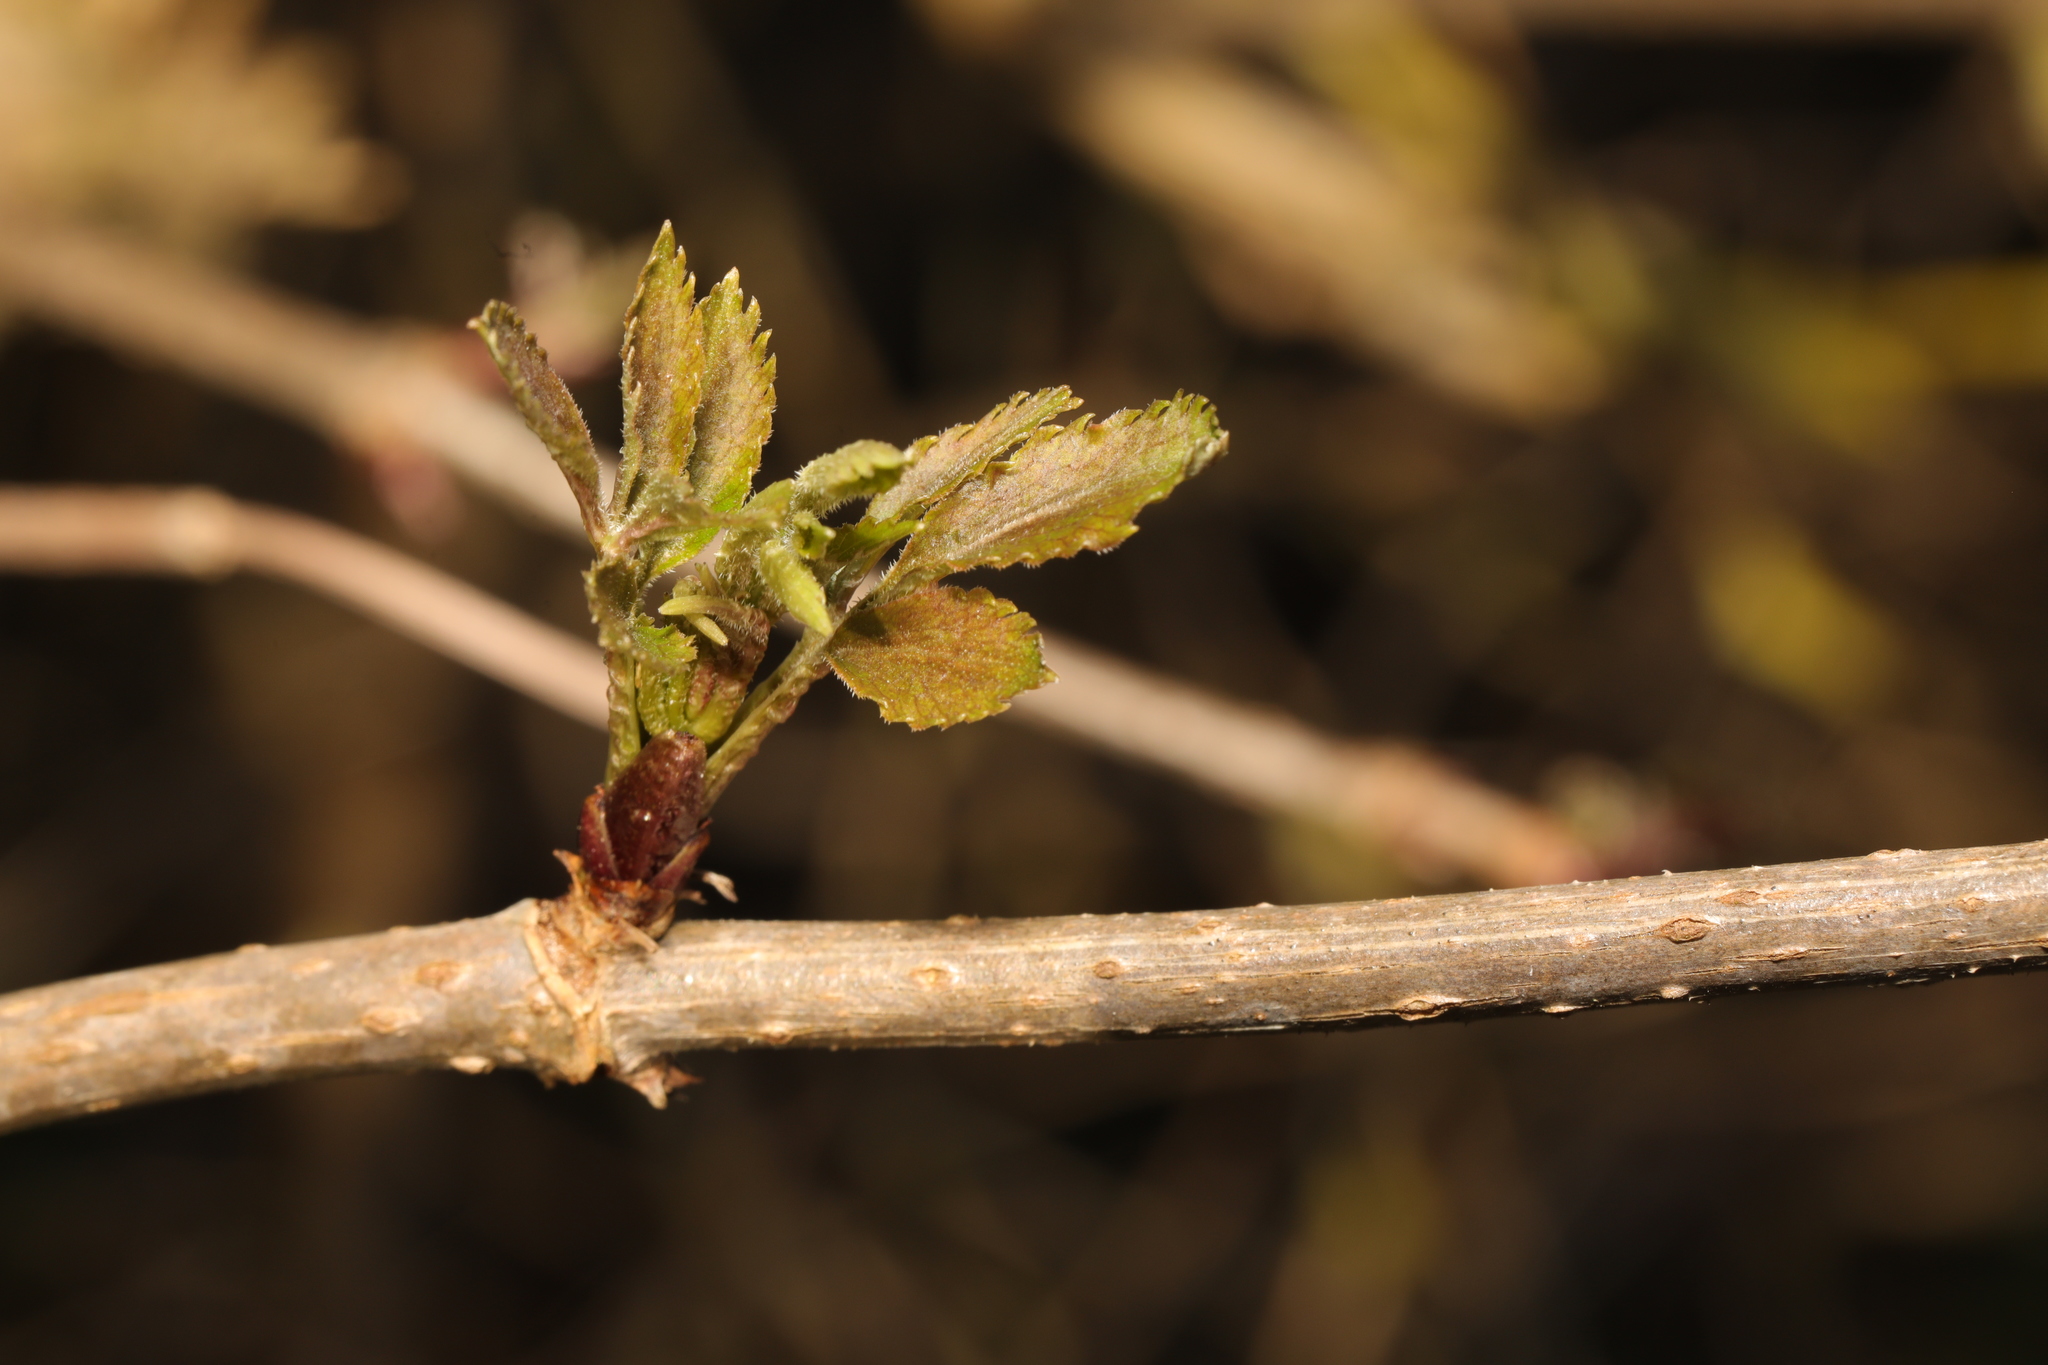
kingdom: Plantae
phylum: Tracheophyta
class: Magnoliopsida
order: Dipsacales
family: Viburnaceae
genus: Sambucus
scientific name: Sambucus nigra
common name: Elder
